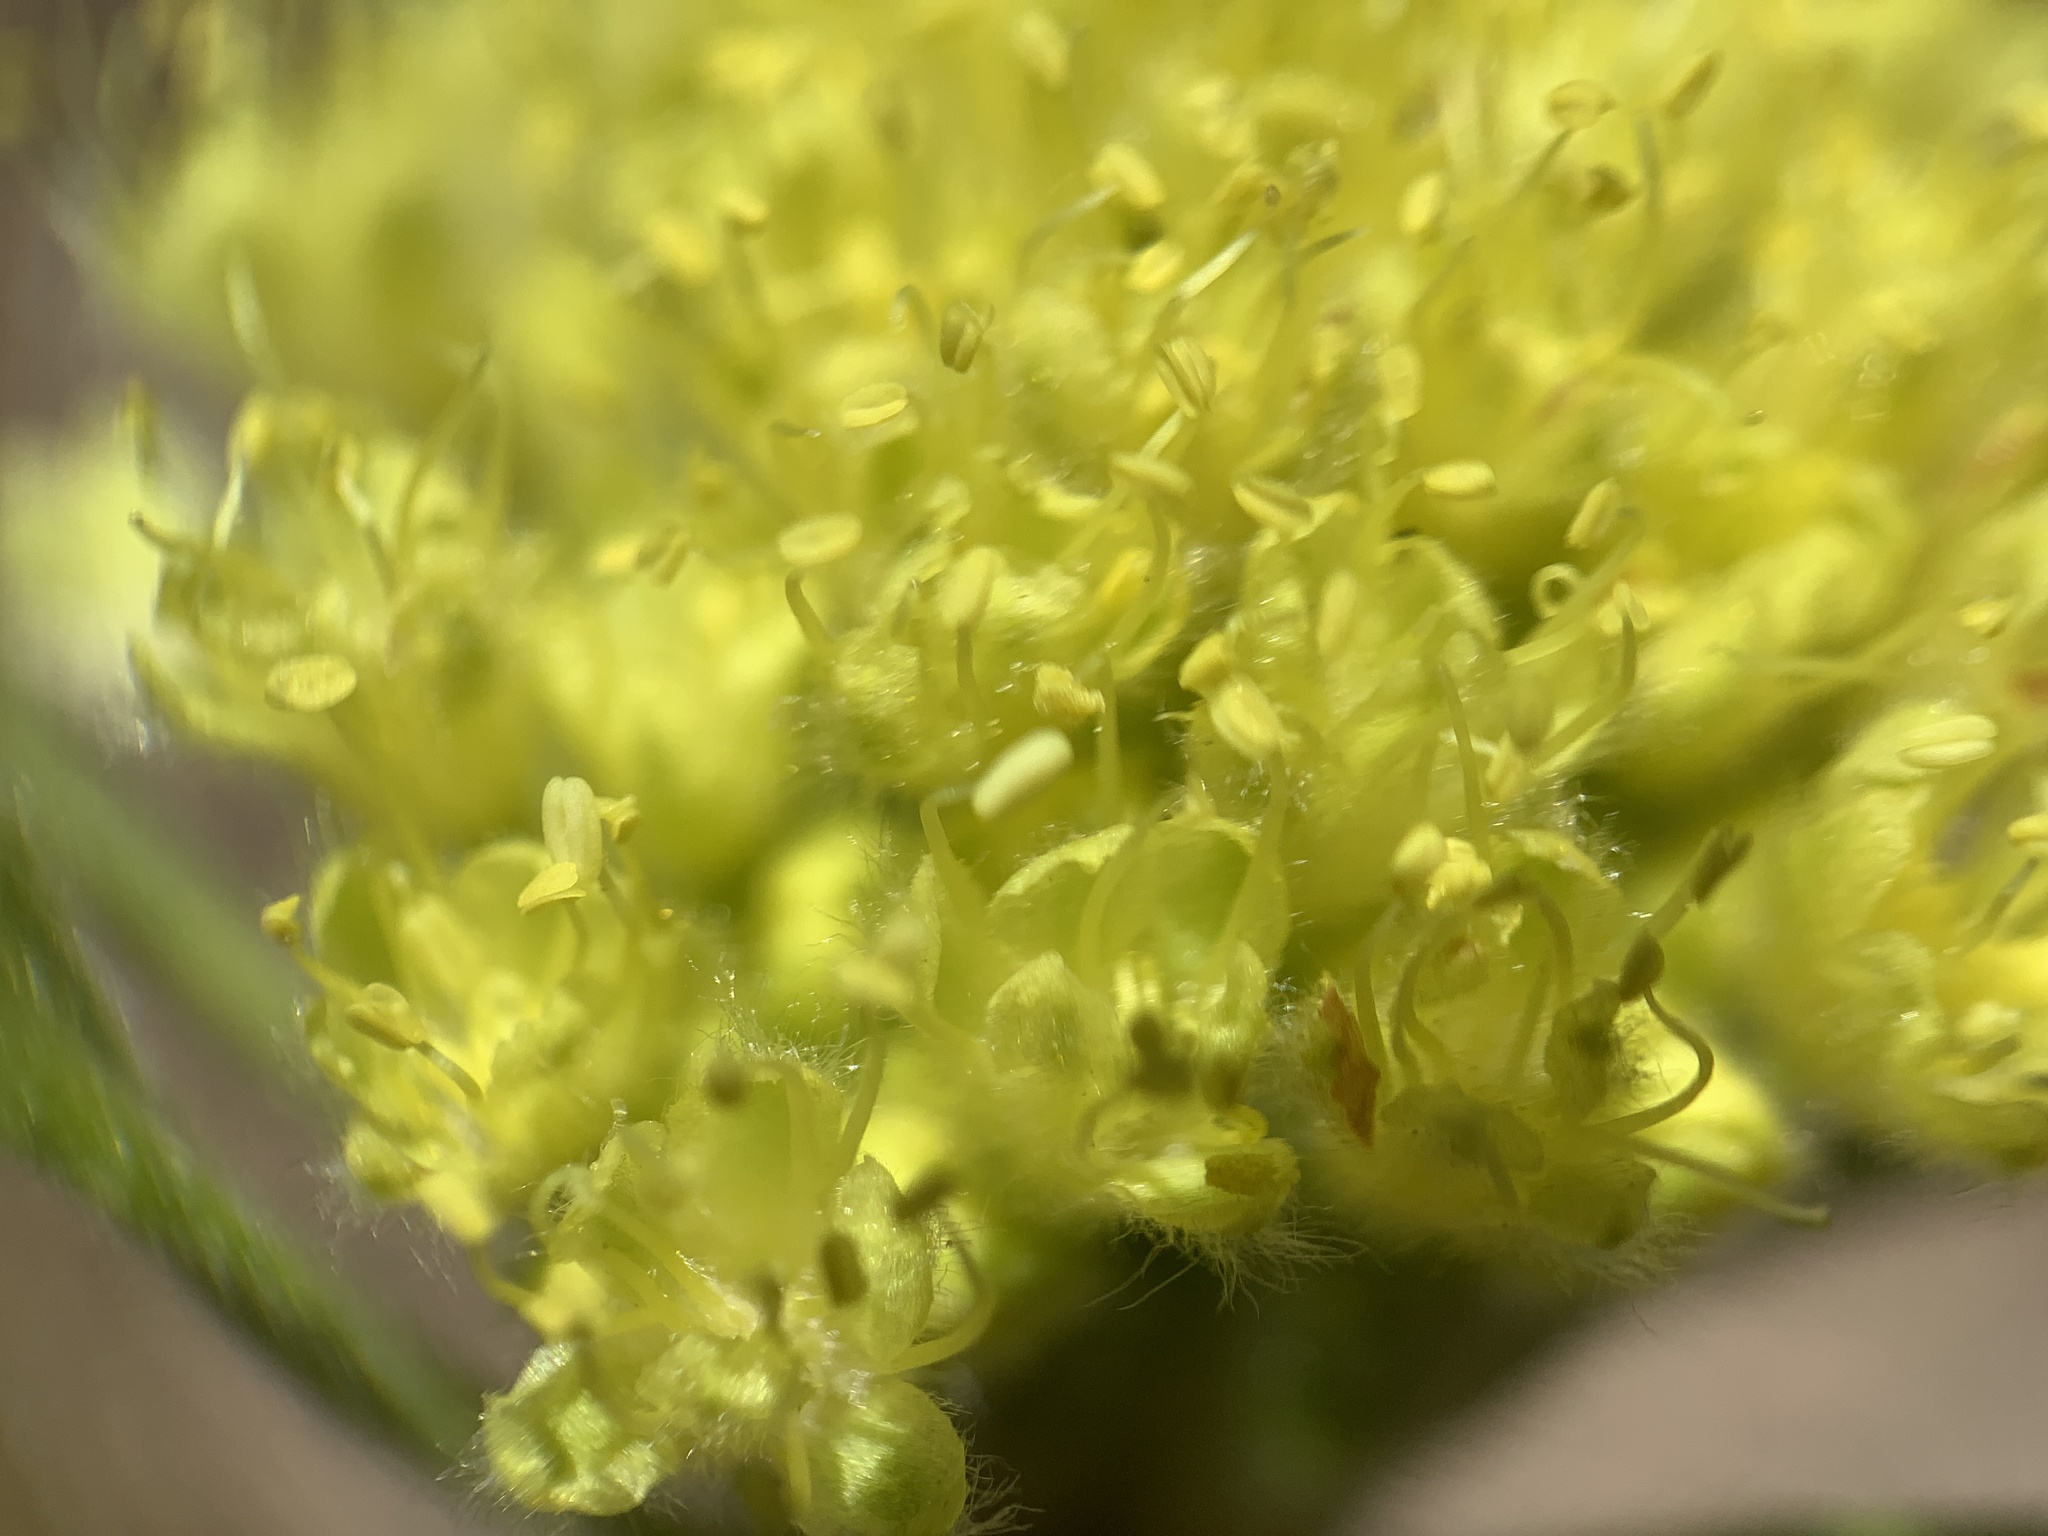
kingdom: Plantae
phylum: Tracheophyta
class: Magnoliopsida
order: Caryophyllales
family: Polygonaceae
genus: Eriogonum
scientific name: Eriogonum flavum
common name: Alpine golden wild buckwheat
